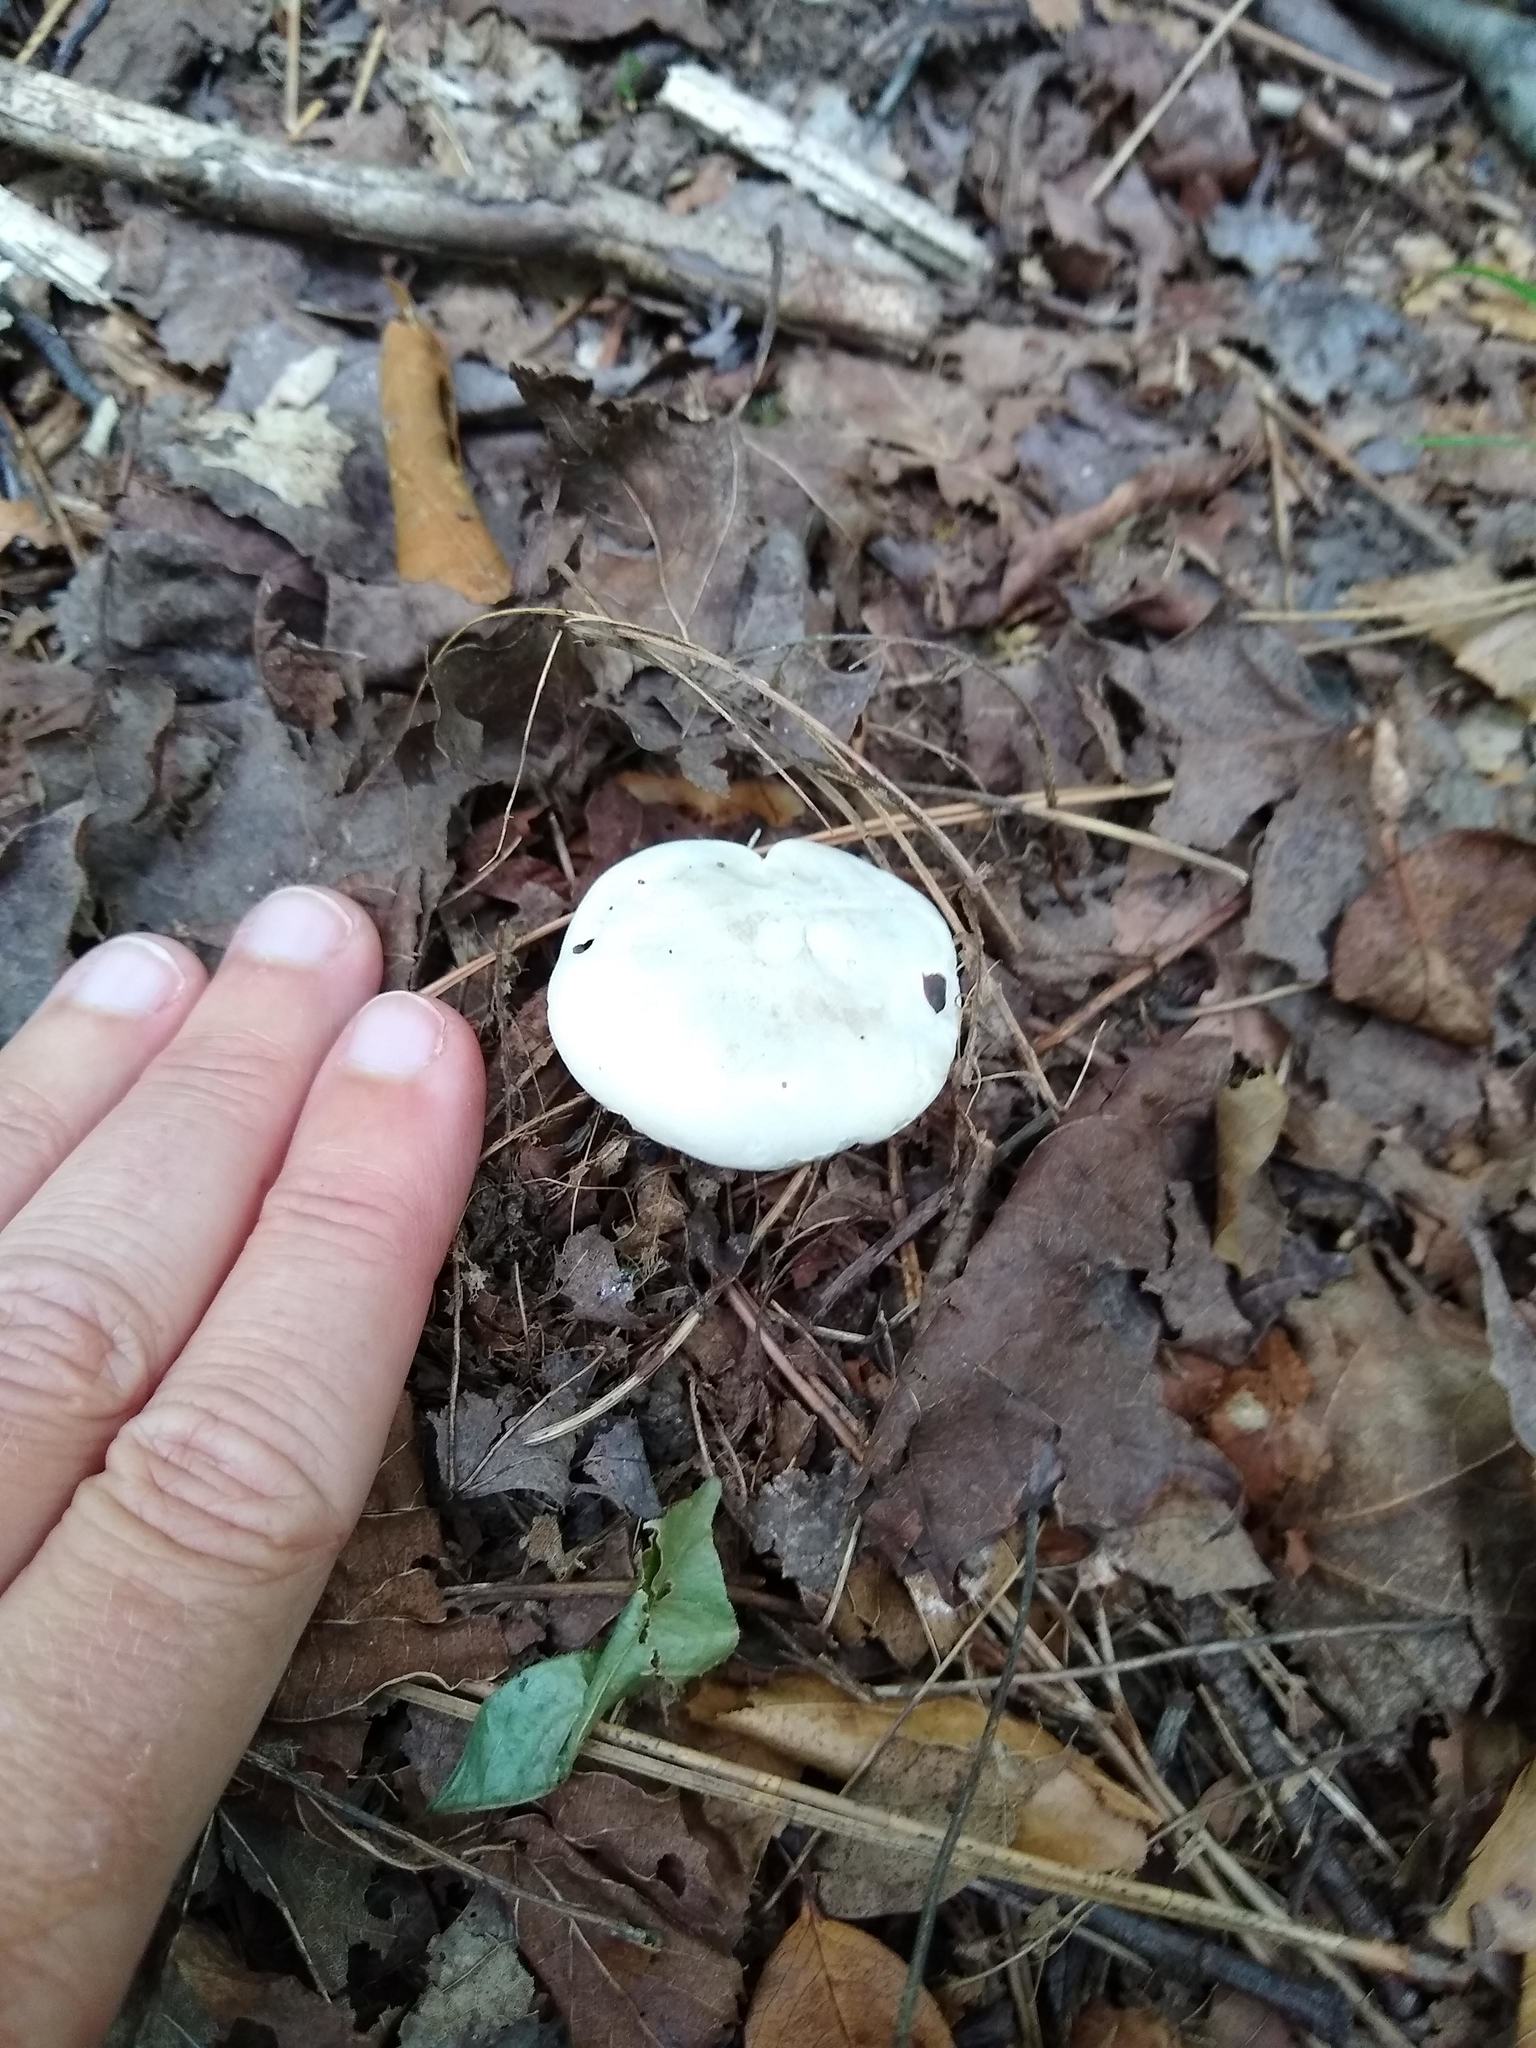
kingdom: Fungi
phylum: Basidiomycota
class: Agaricomycetes
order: Agaricales
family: Entolomataceae
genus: Clitopilus
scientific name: Clitopilus prunulus
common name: The miller
